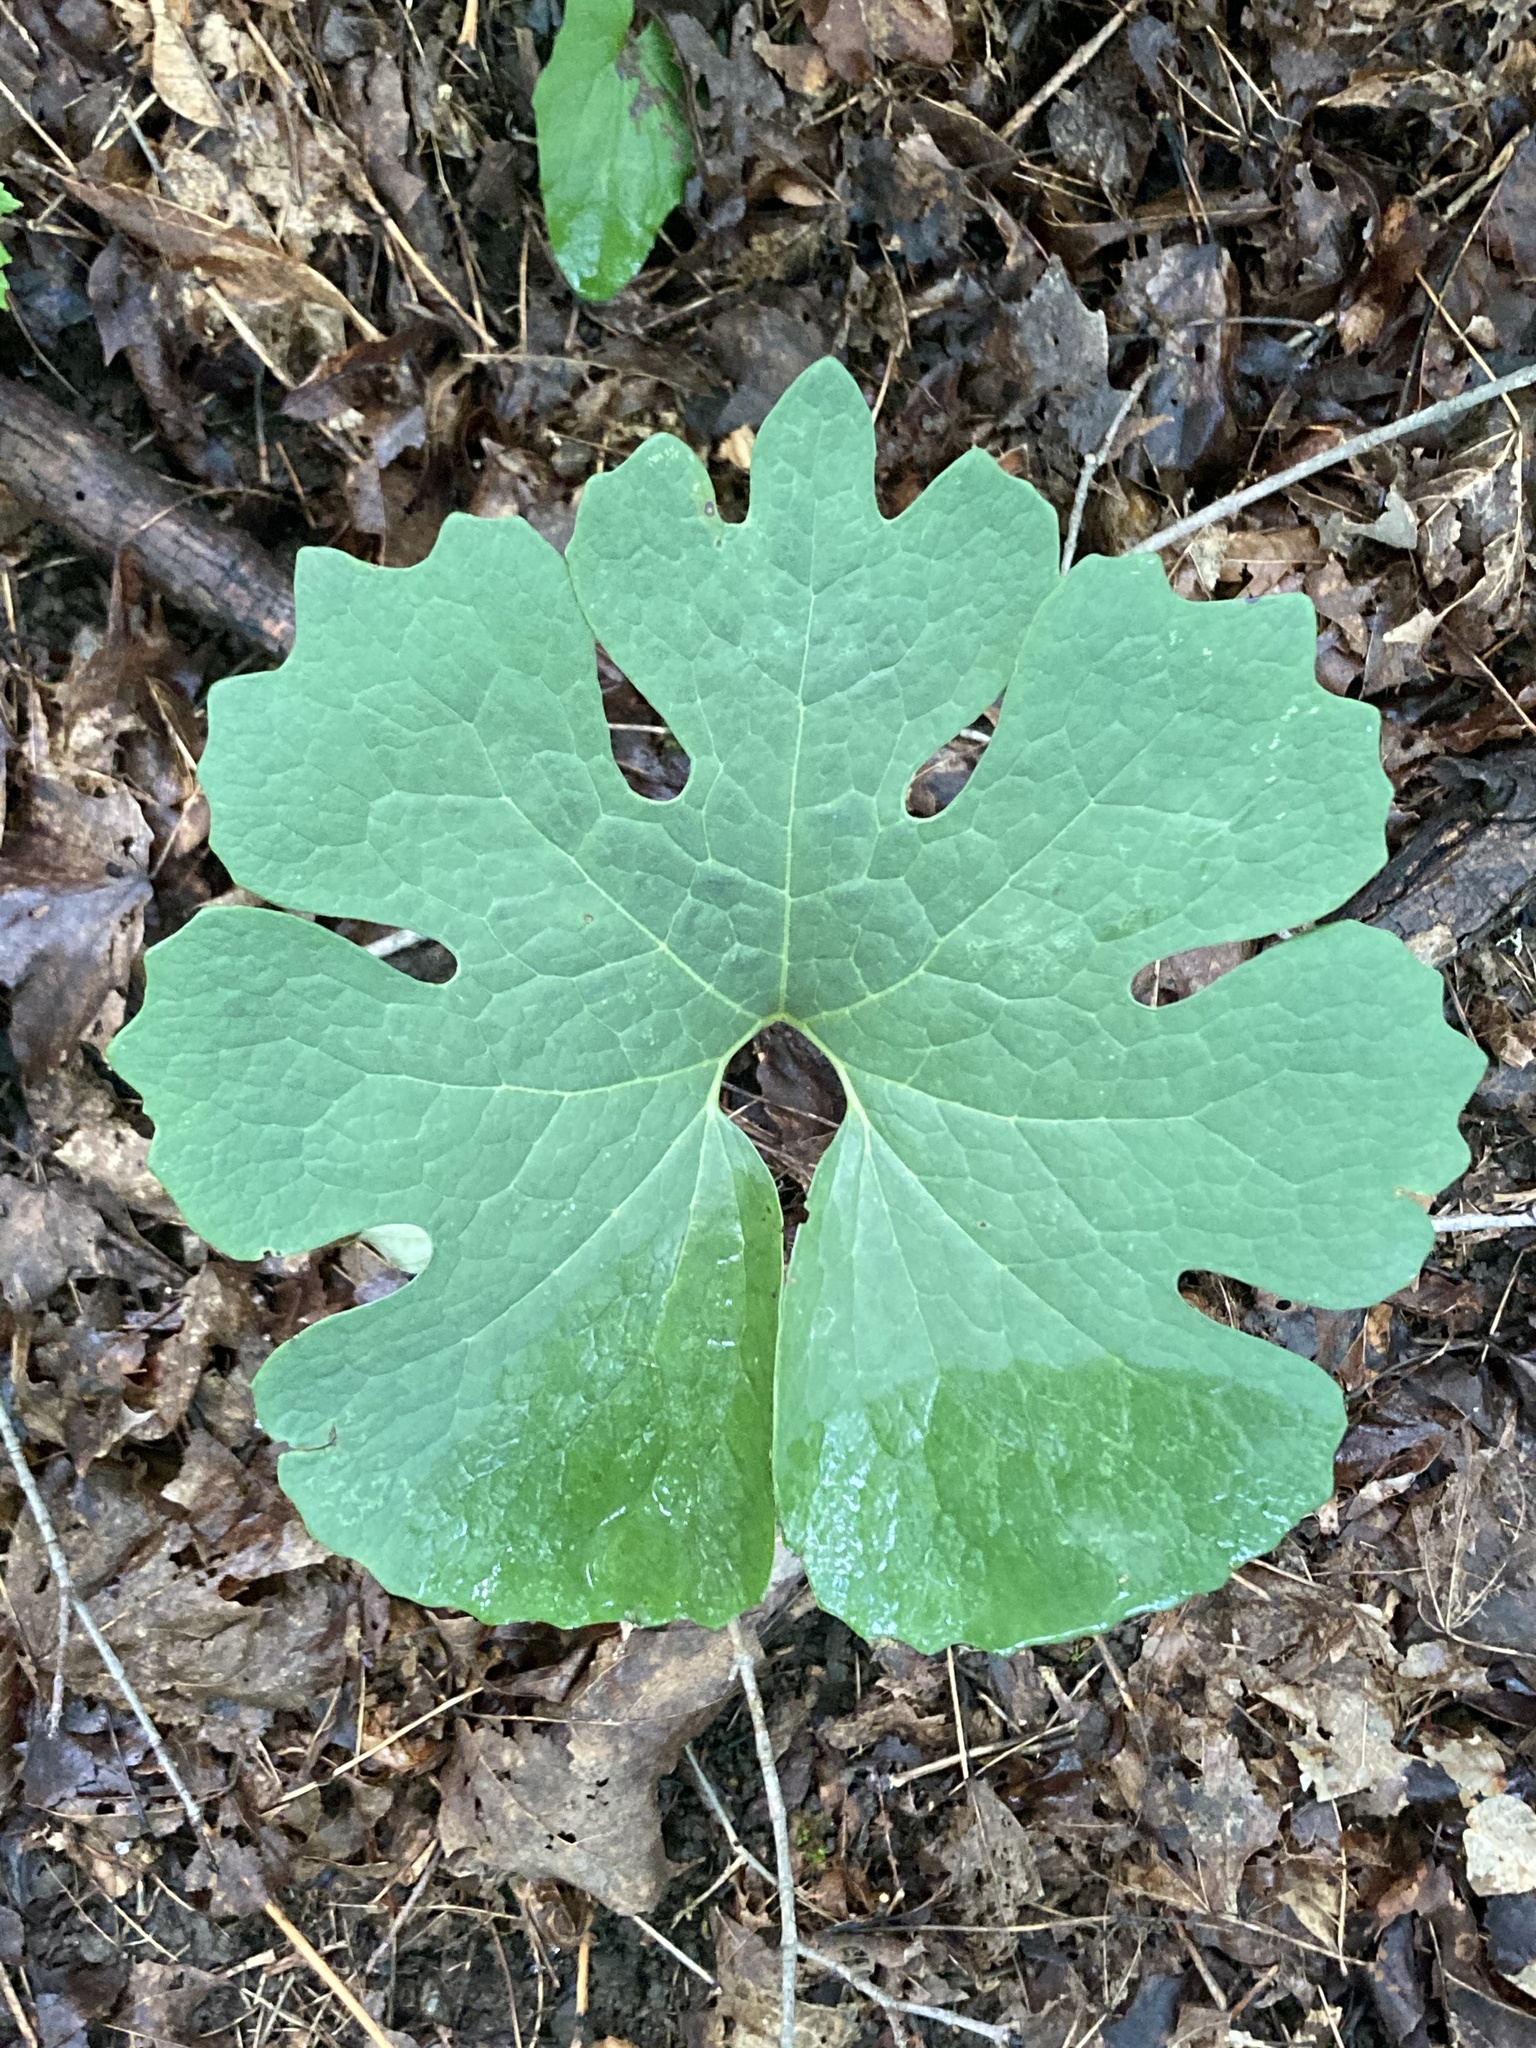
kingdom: Plantae
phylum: Tracheophyta
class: Magnoliopsida
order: Ranunculales
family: Papaveraceae
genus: Sanguinaria
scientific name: Sanguinaria canadensis
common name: Bloodroot
